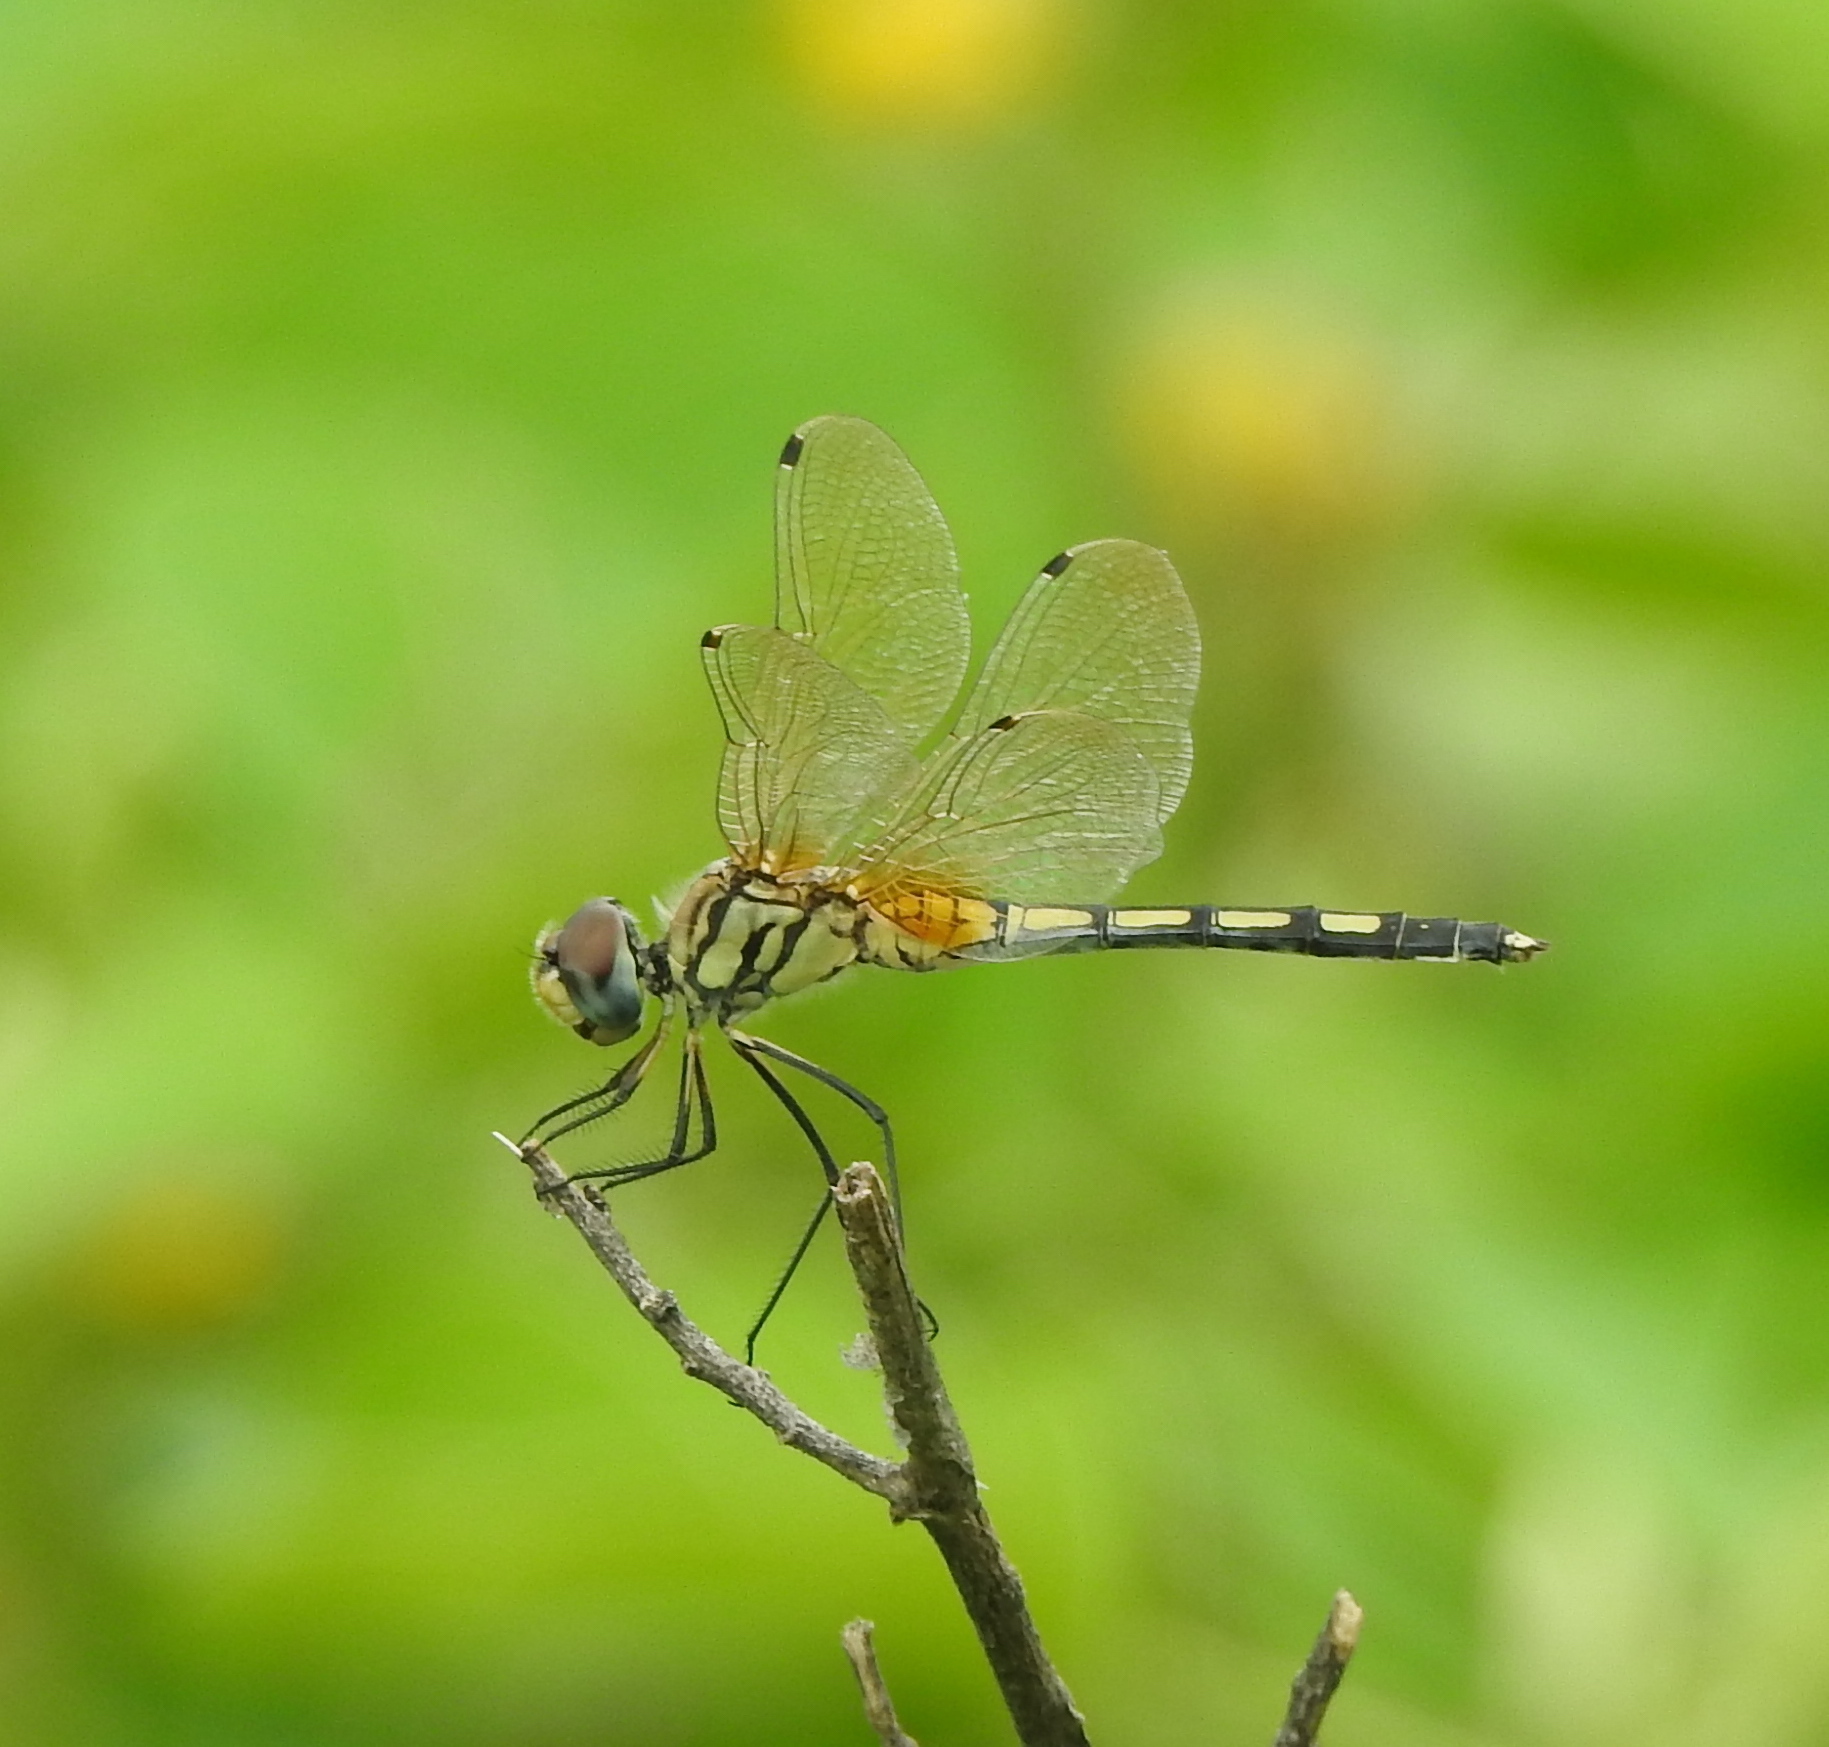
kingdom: Animalia
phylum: Arthropoda
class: Insecta
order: Odonata
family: Libellulidae
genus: Trithemis
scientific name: Trithemis pallidinervis
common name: Dancing dropwing
